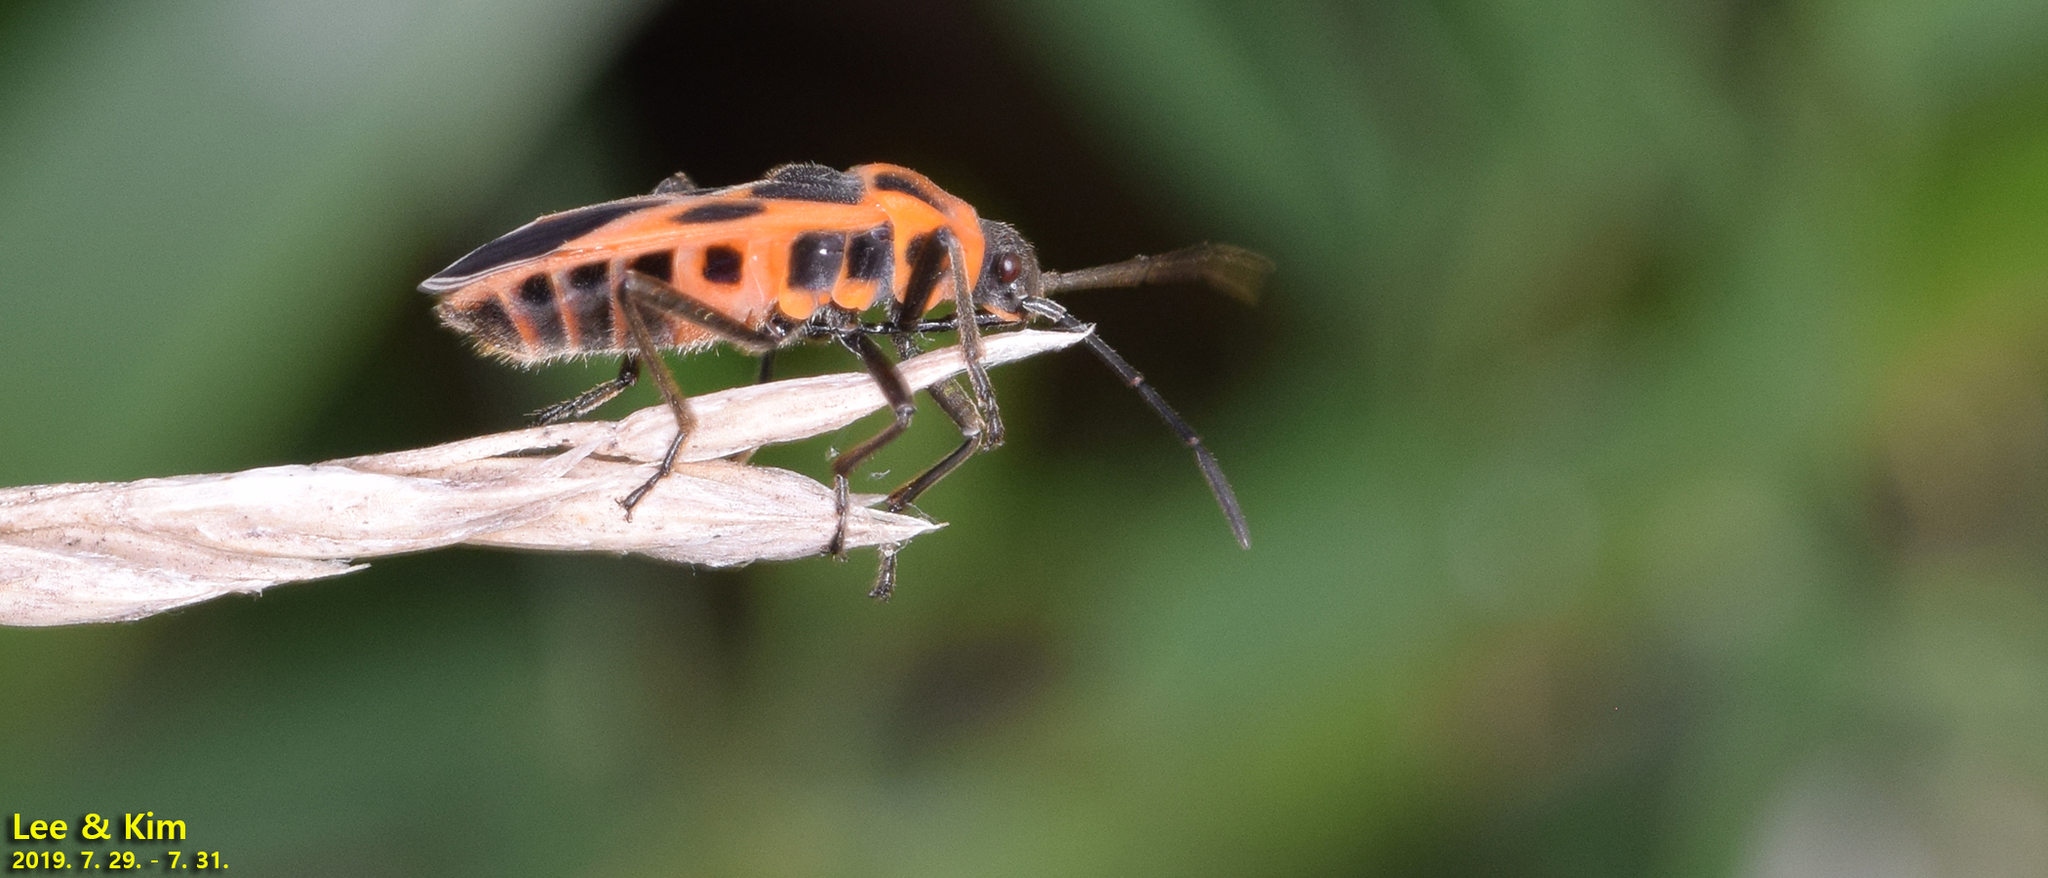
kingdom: Animalia
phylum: Arthropoda
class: Insecta
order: Hemiptera
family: Lygaeidae
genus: Tropidothorax
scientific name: Tropidothorax
